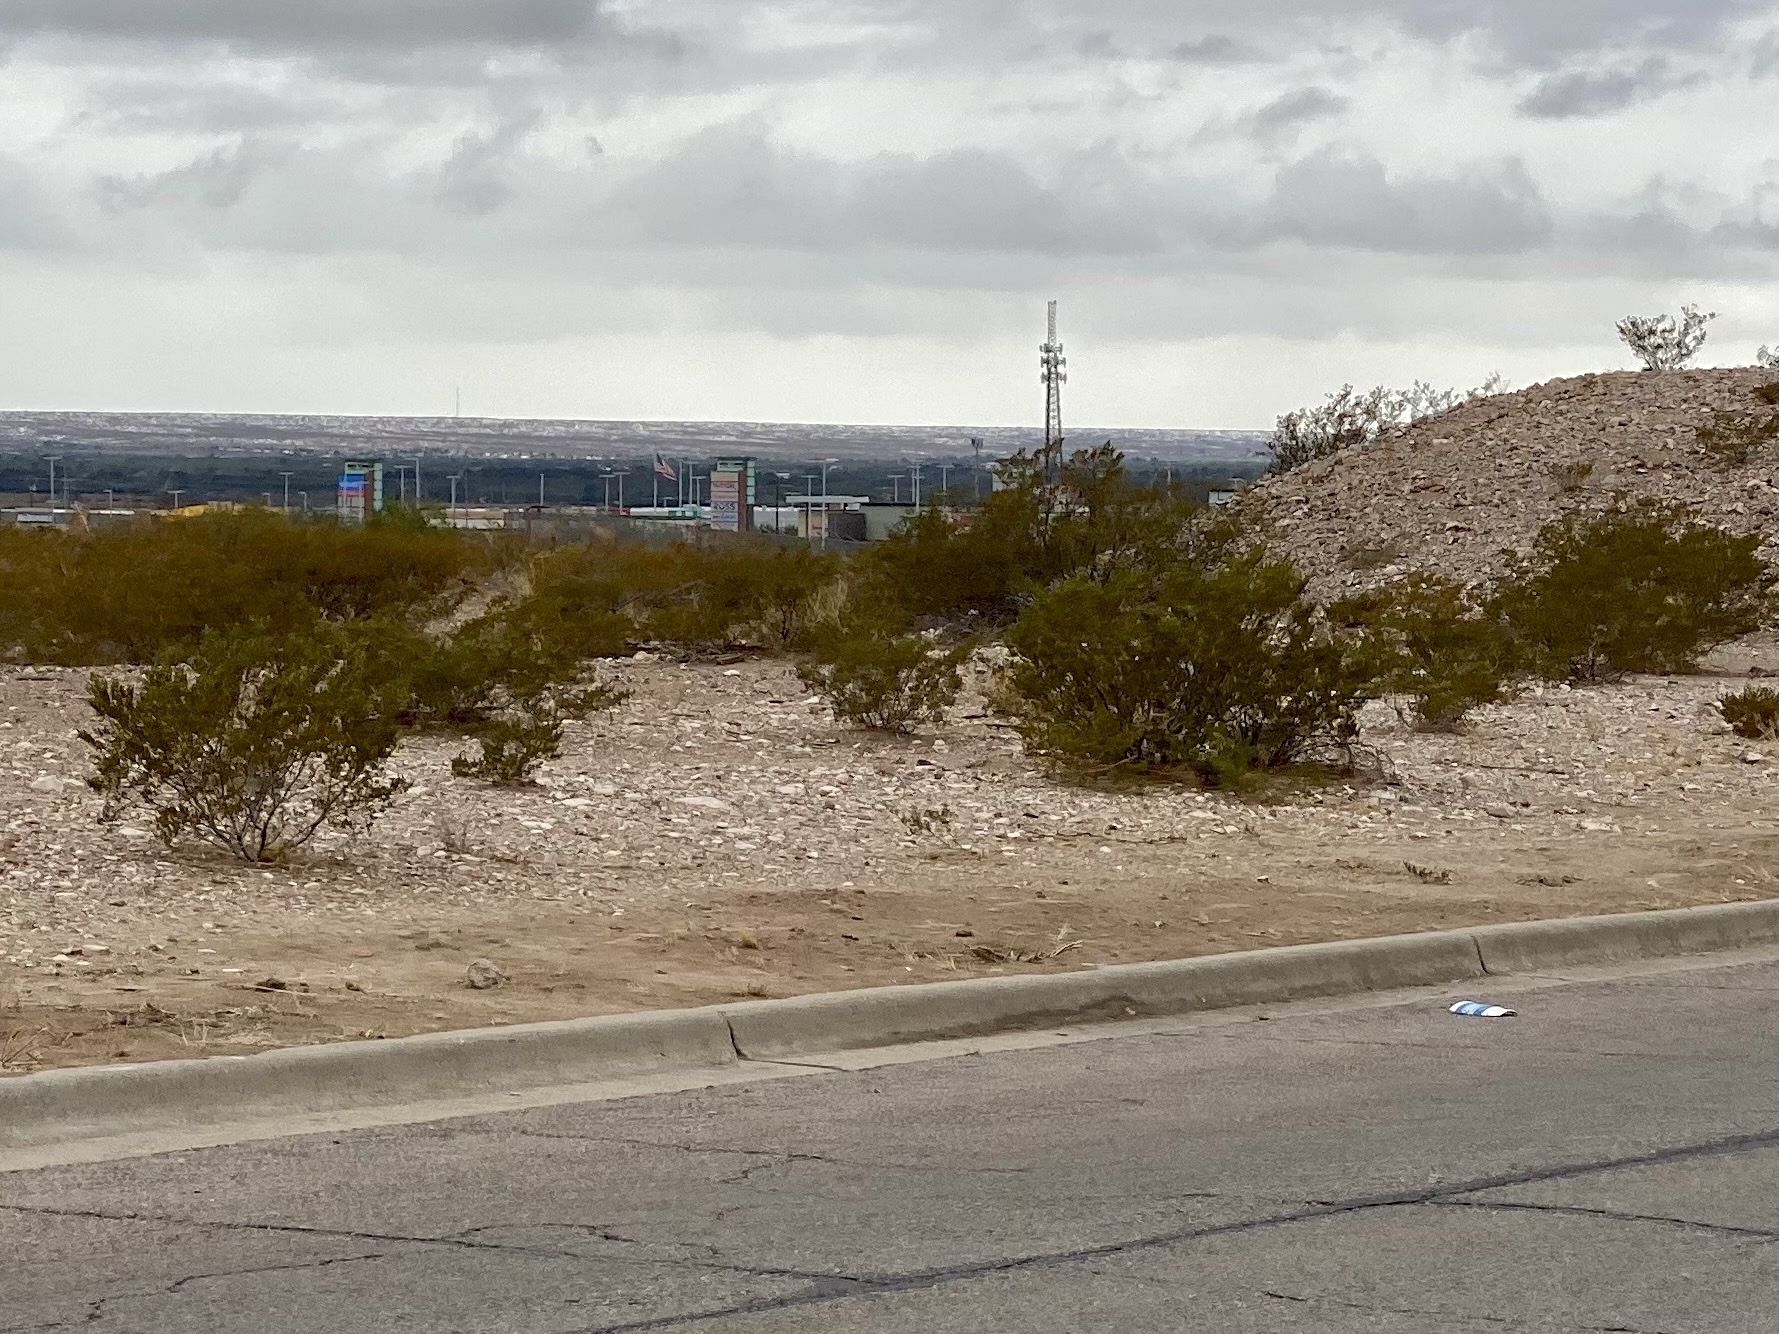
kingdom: Plantae
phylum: Tracheophyta
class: Magnoliopsida
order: Zygophyllales
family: Zygophyllaceae
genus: Larrea
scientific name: Larrea tridentata
